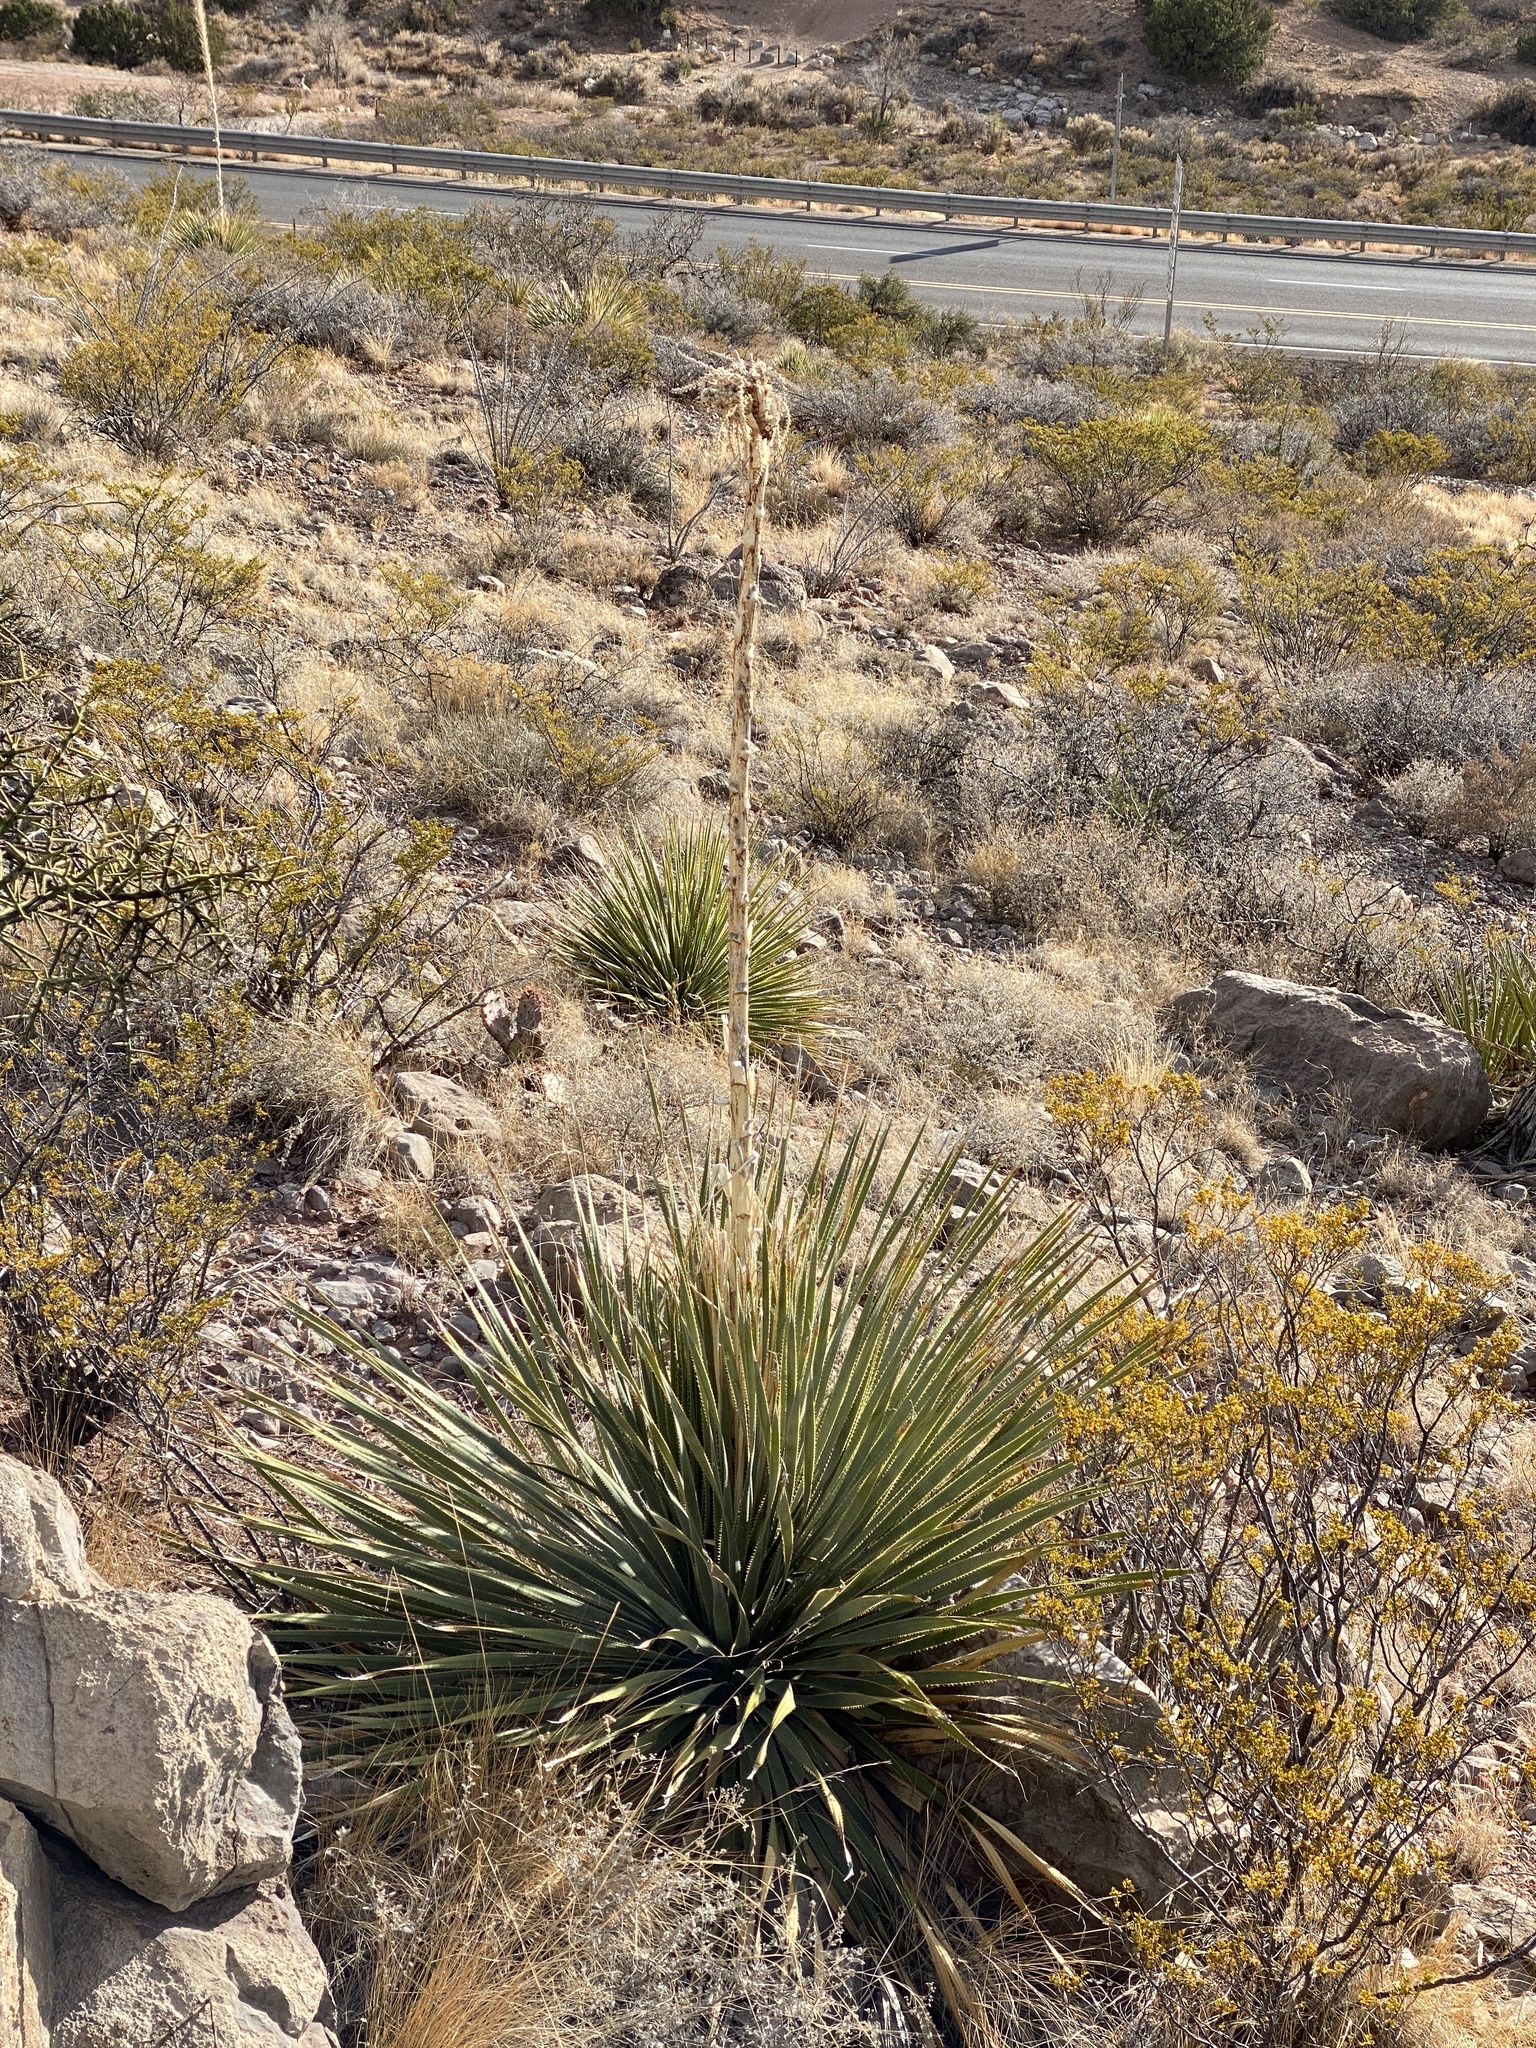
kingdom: Plantae
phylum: Tracheophyta
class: Liliopsida
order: Asparagales
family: Asparagaceae
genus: Dasylirion
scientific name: Dasylirion wheeleri
